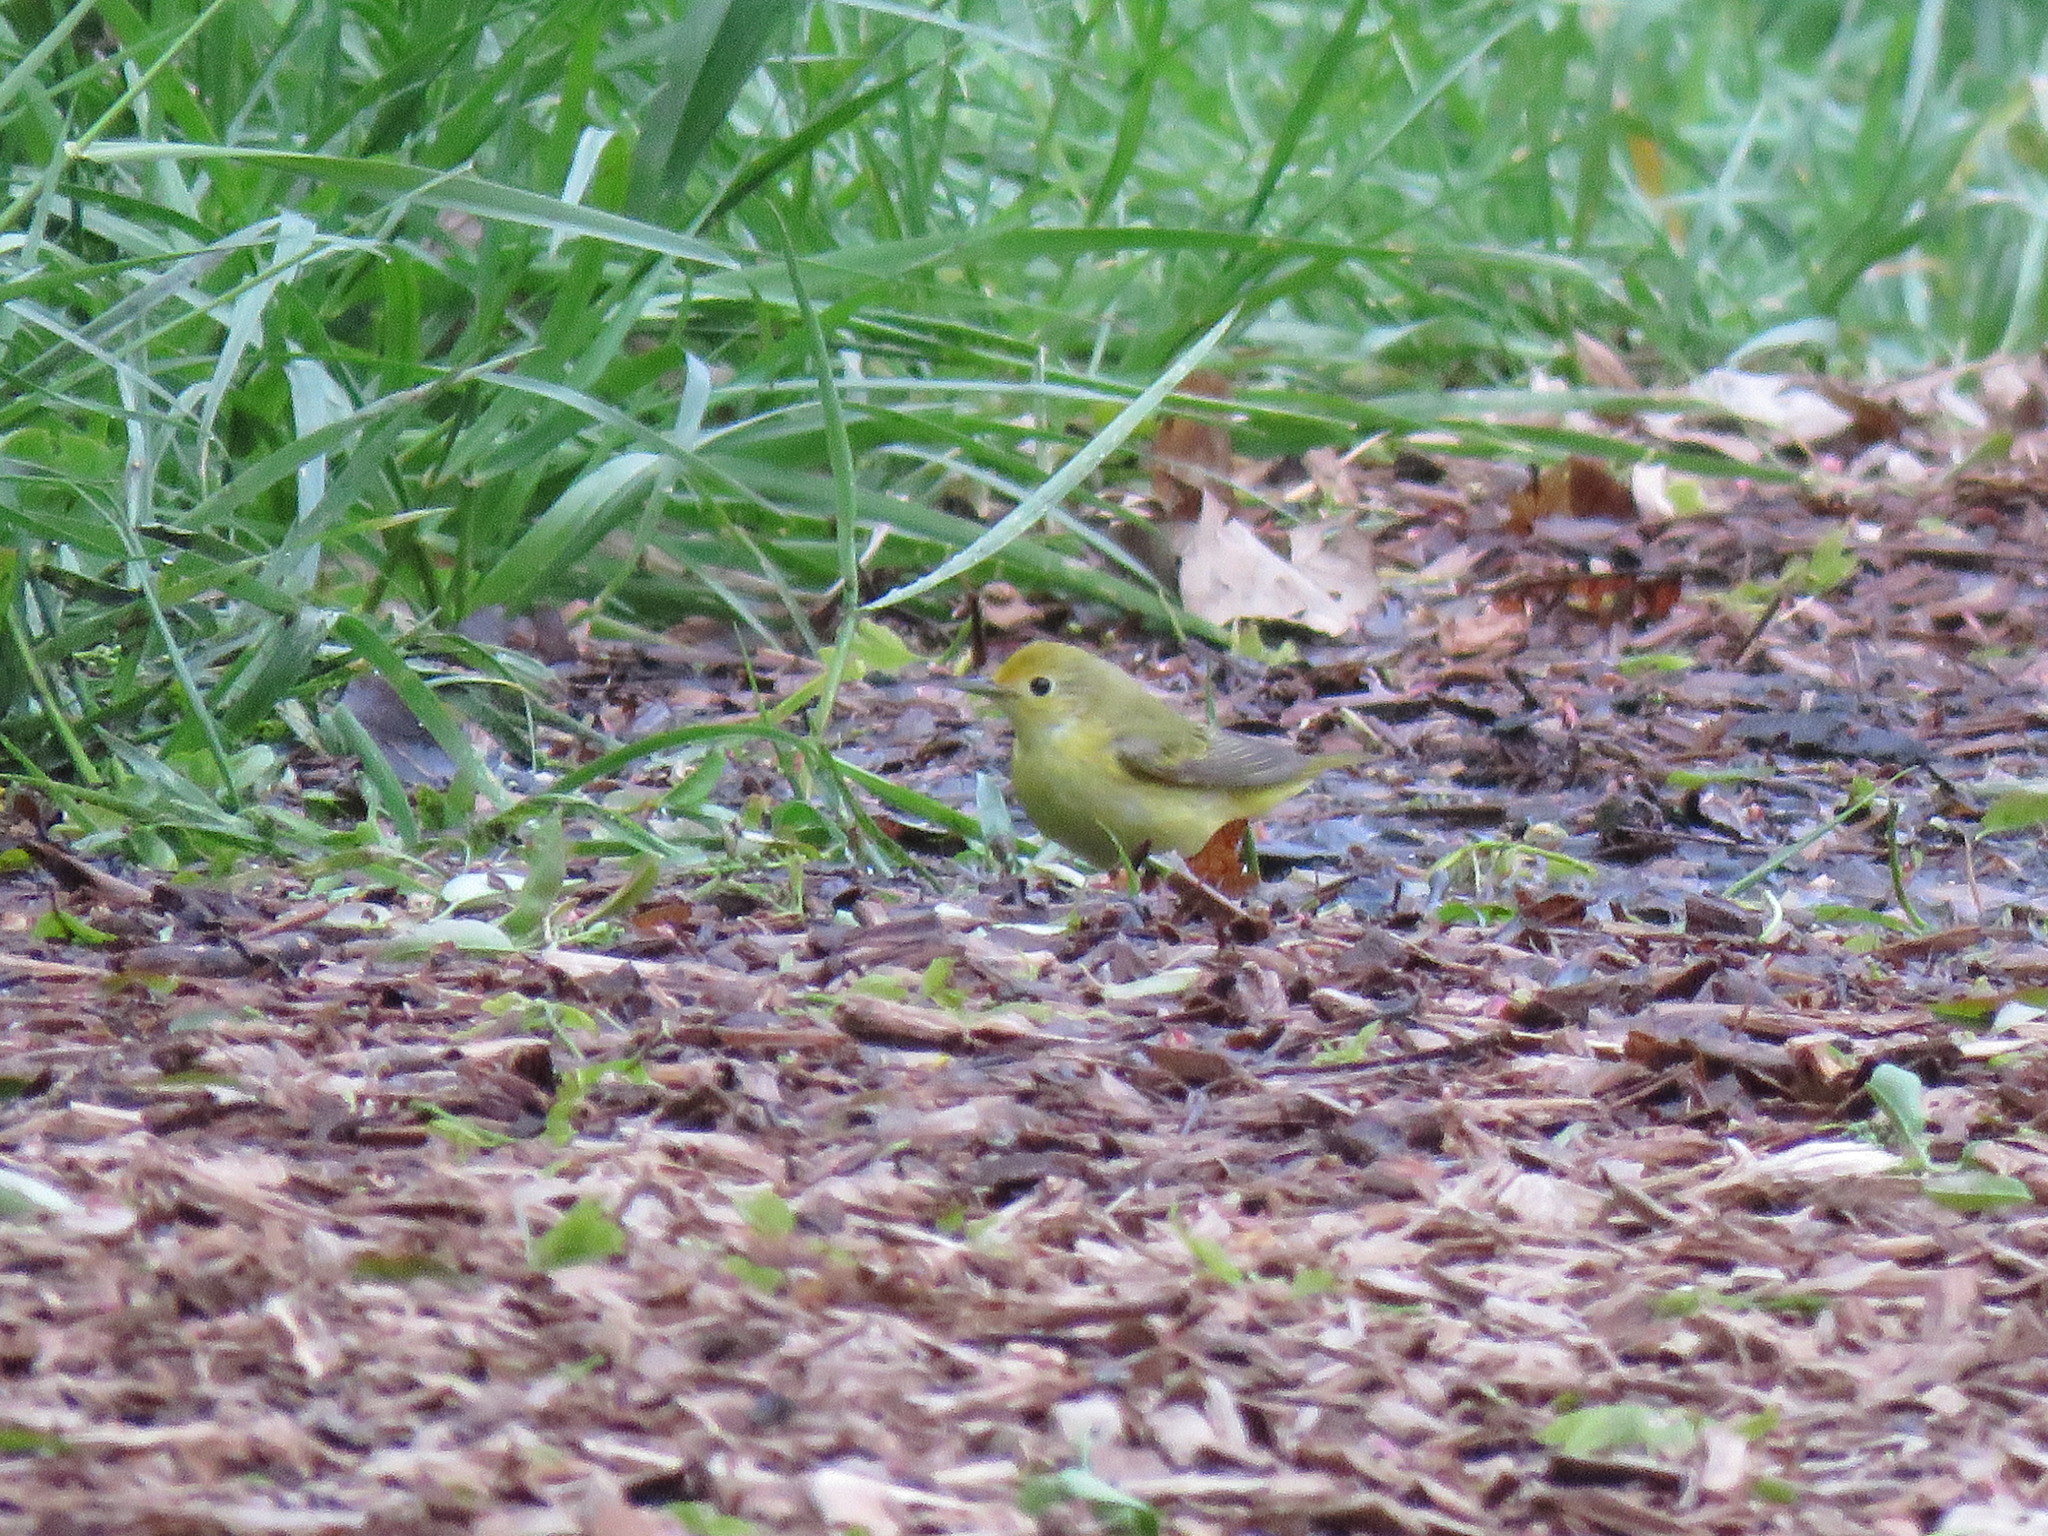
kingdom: Animalia
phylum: Chordata
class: Aves
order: Passeriformes
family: Parulidae
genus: Setophaga
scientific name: Setophaga petechia
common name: Yellow warbler
